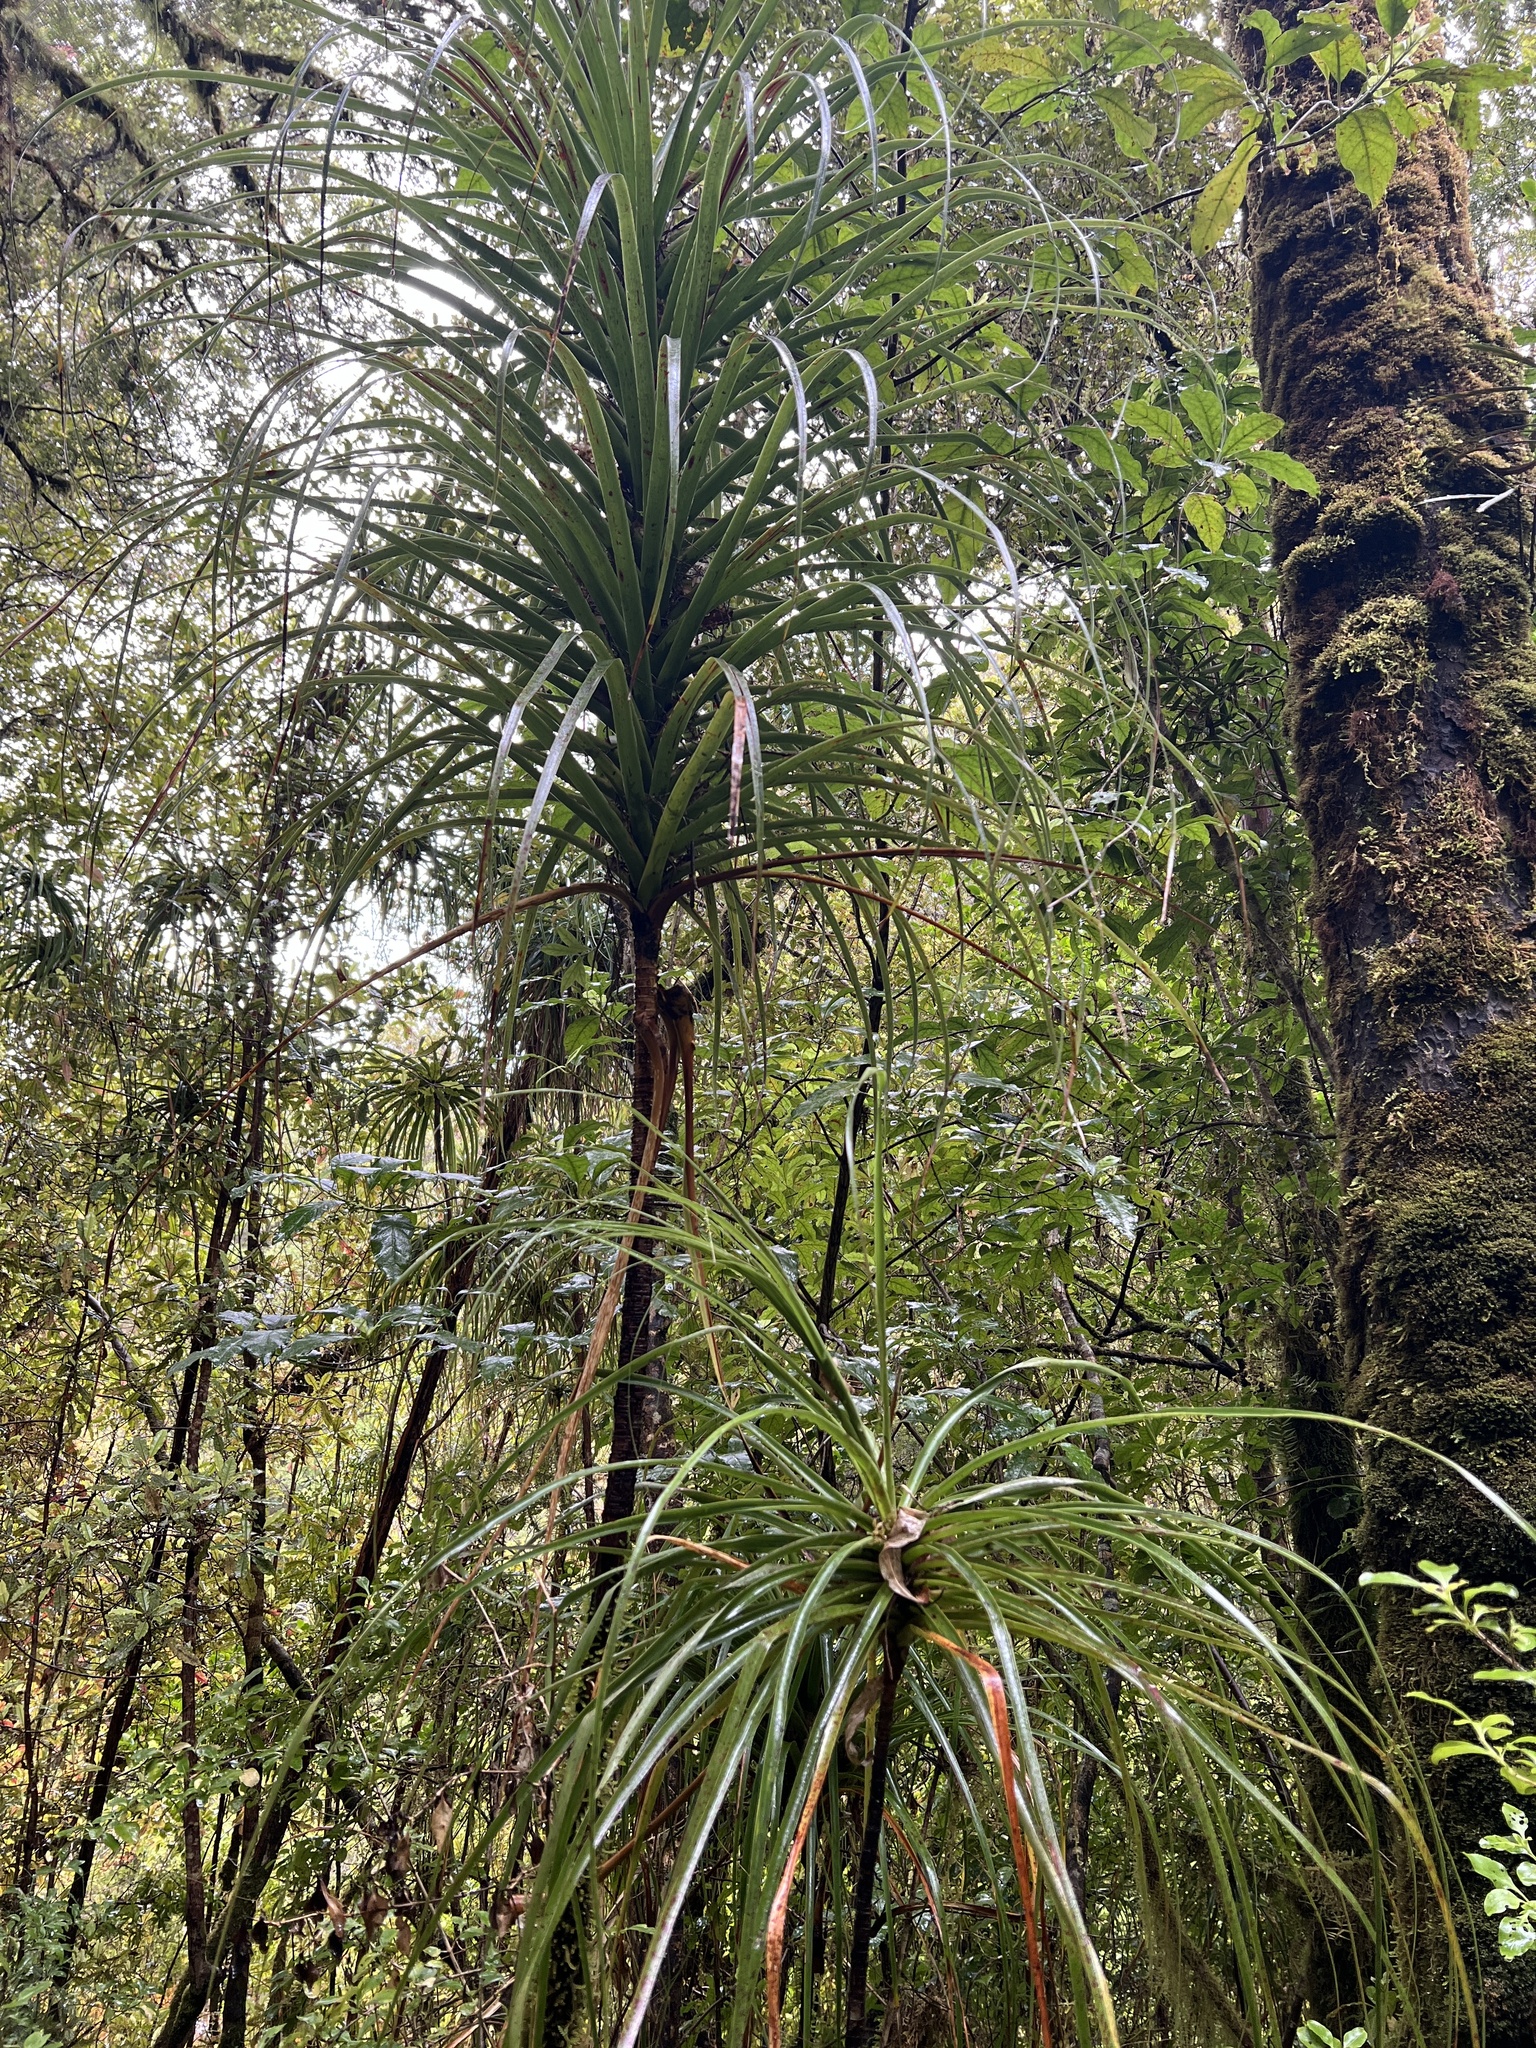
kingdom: Plantae
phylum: Tracheophyta
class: Magnoliopsida
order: Ericales
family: Ericaceae
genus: Dracophyllum
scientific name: Dracophyllum elegantissimum
